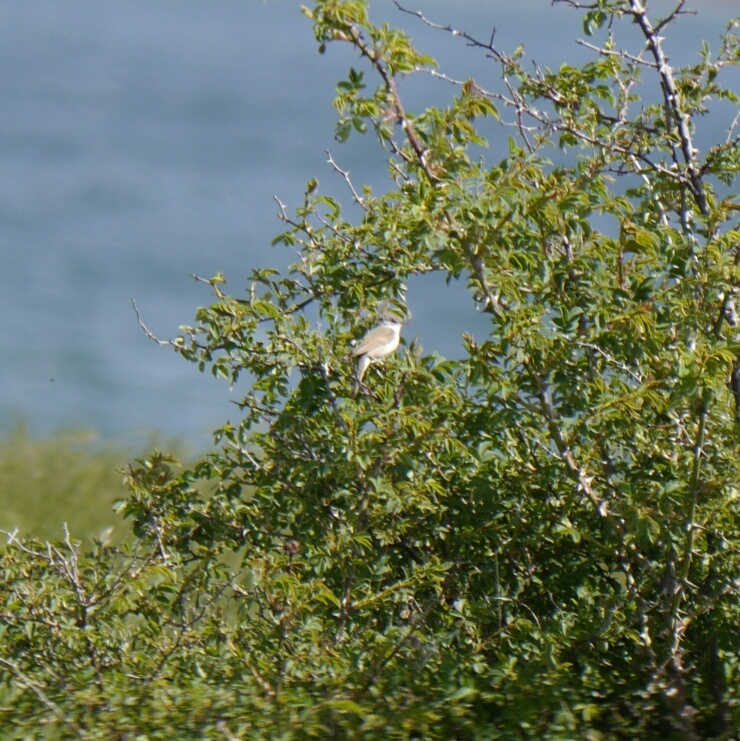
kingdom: Animalia
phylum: Chordata
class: Aves
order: Passeriformes
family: Sylviidae
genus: Sylvia
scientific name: Sylvia communis
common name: Common whitethroat
